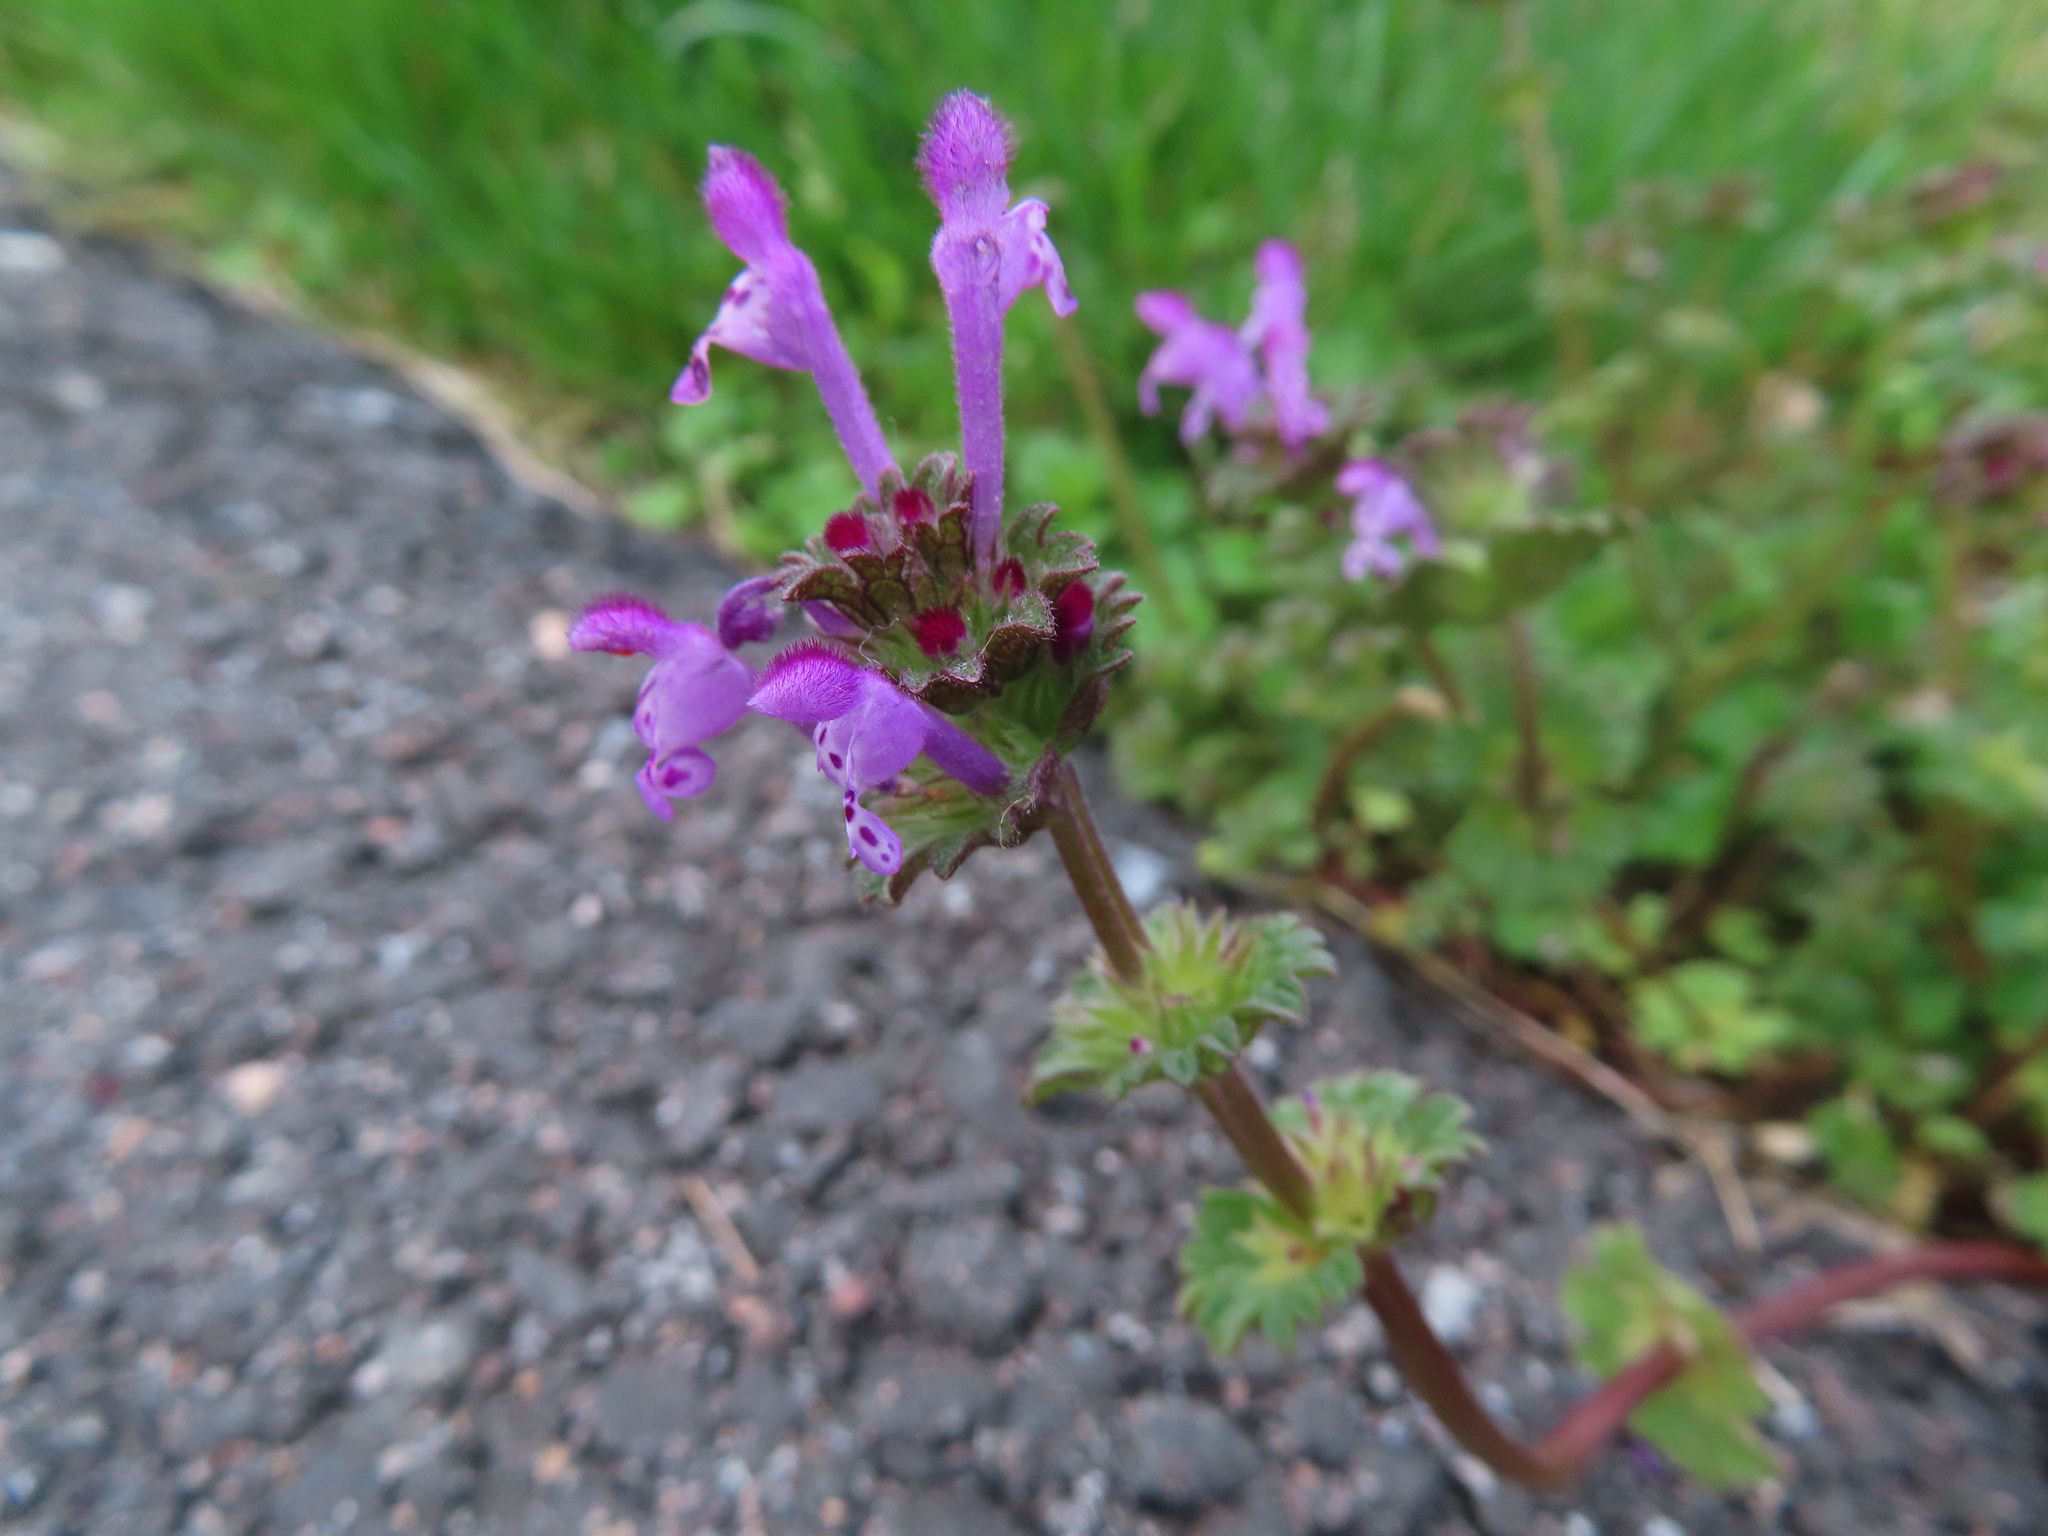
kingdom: Plantae
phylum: Tracheophyta
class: Magnoliopsida
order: Lamiales
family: Lamiaceae
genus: Lamium
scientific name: Lamium amplexicaule
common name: Henbit dead-nettle
